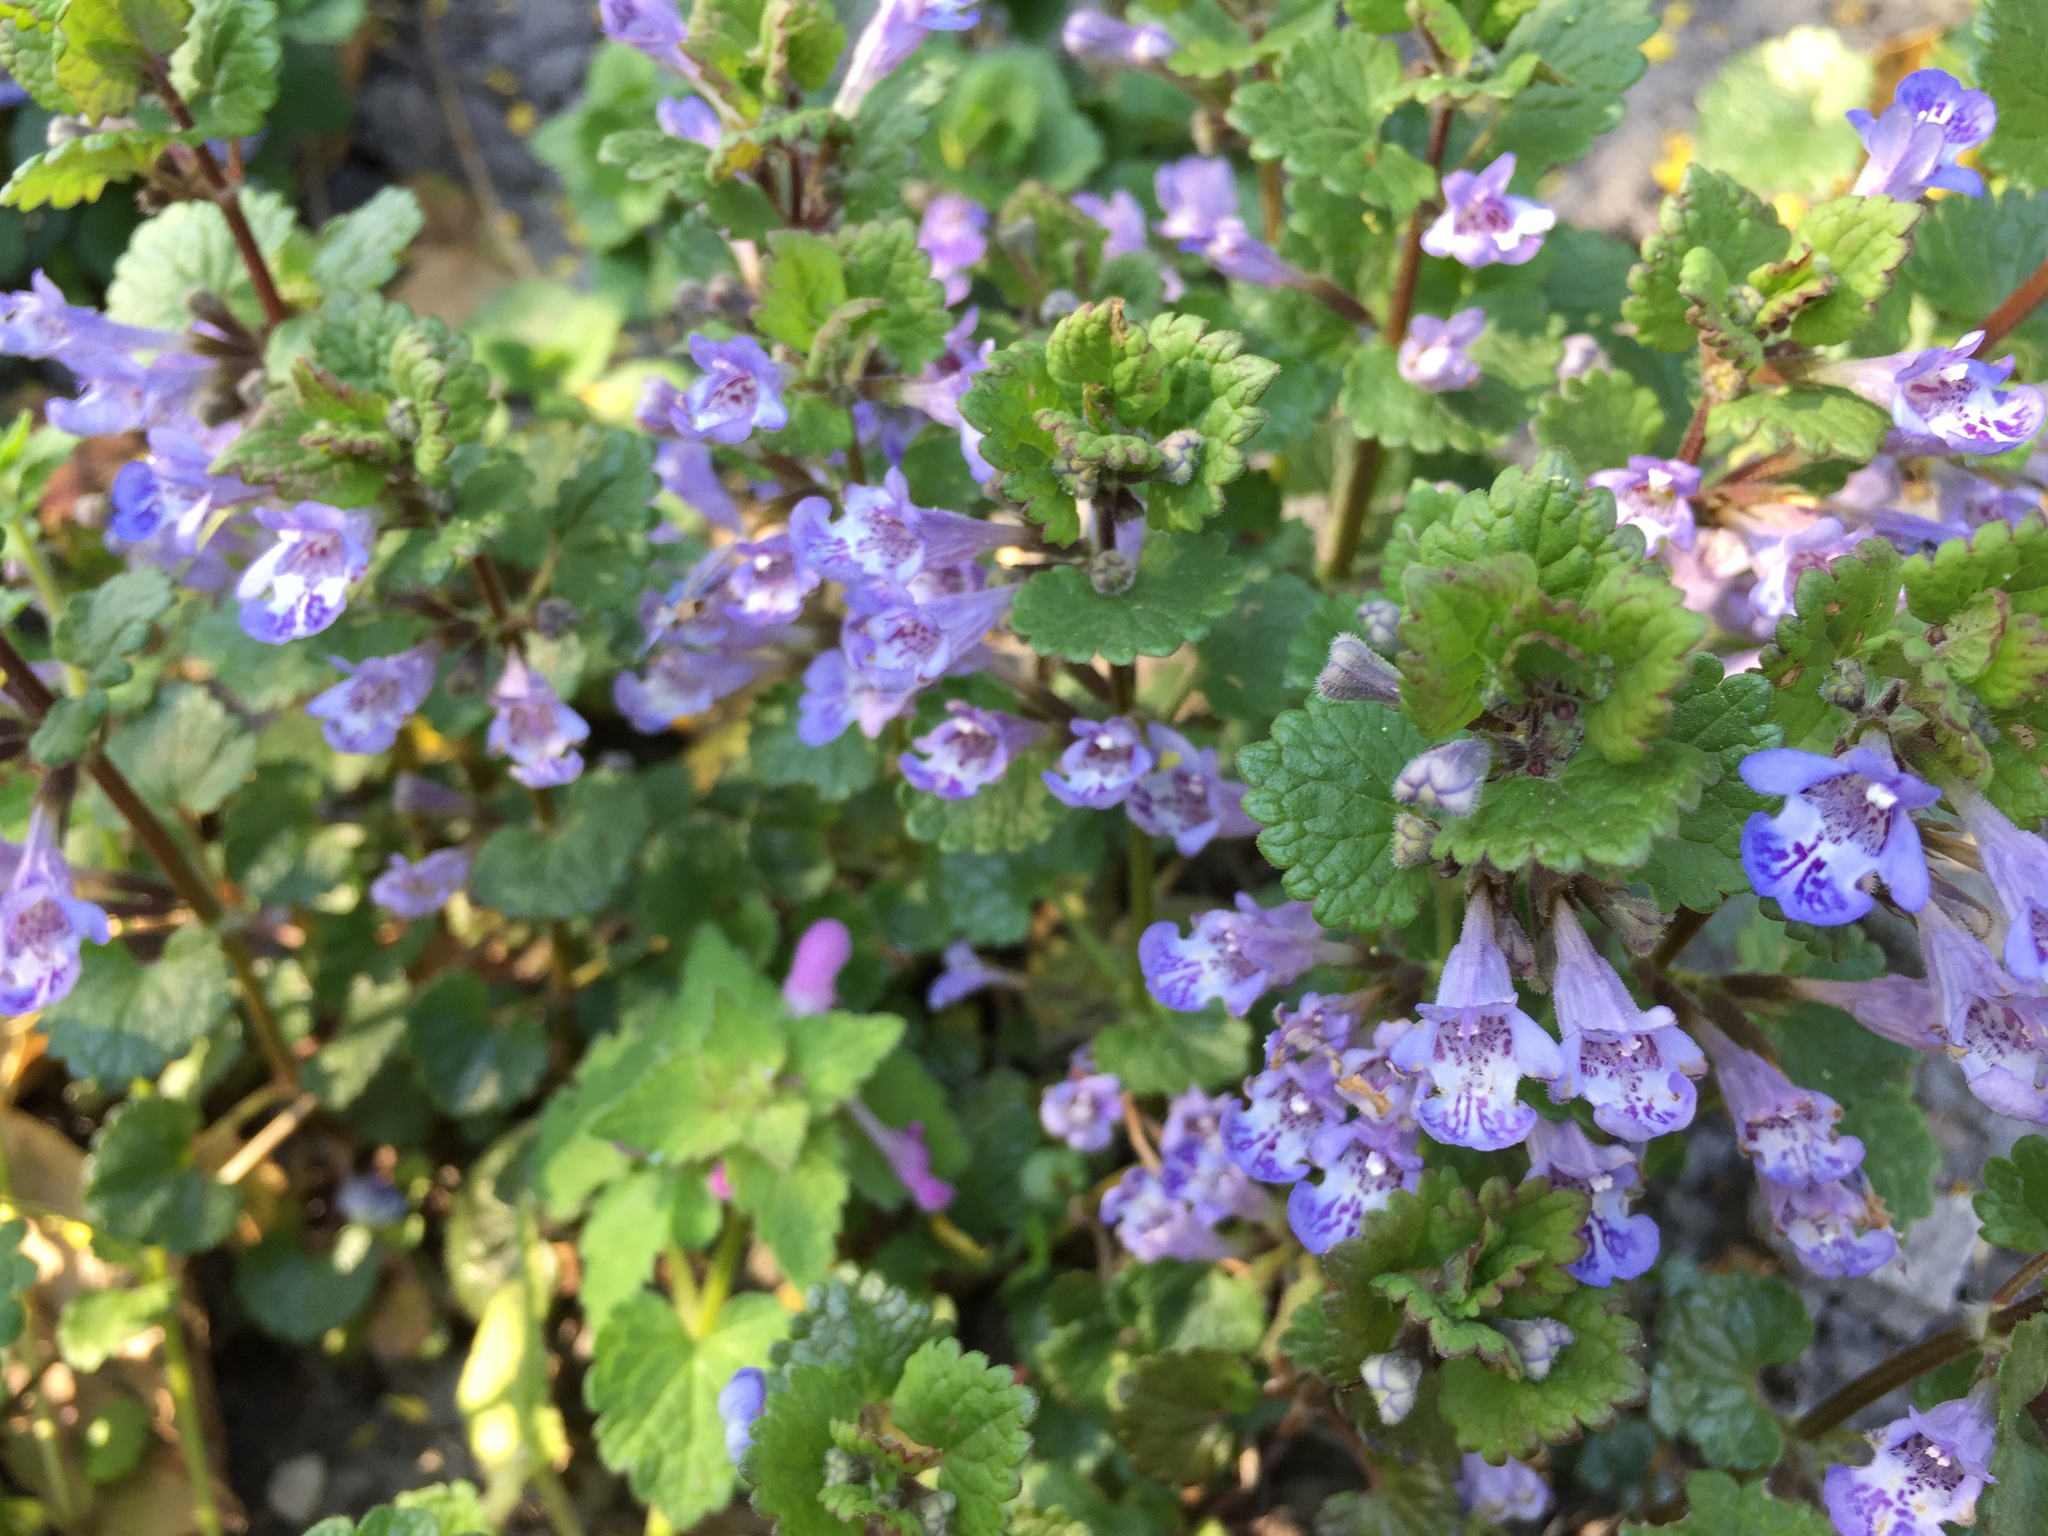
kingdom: Plantae
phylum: Tracheophyta
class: Magnoliopsida
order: Lamiales
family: Lamiaceae
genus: Glechoma
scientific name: Glechoma hederacea
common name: Ground ivy
